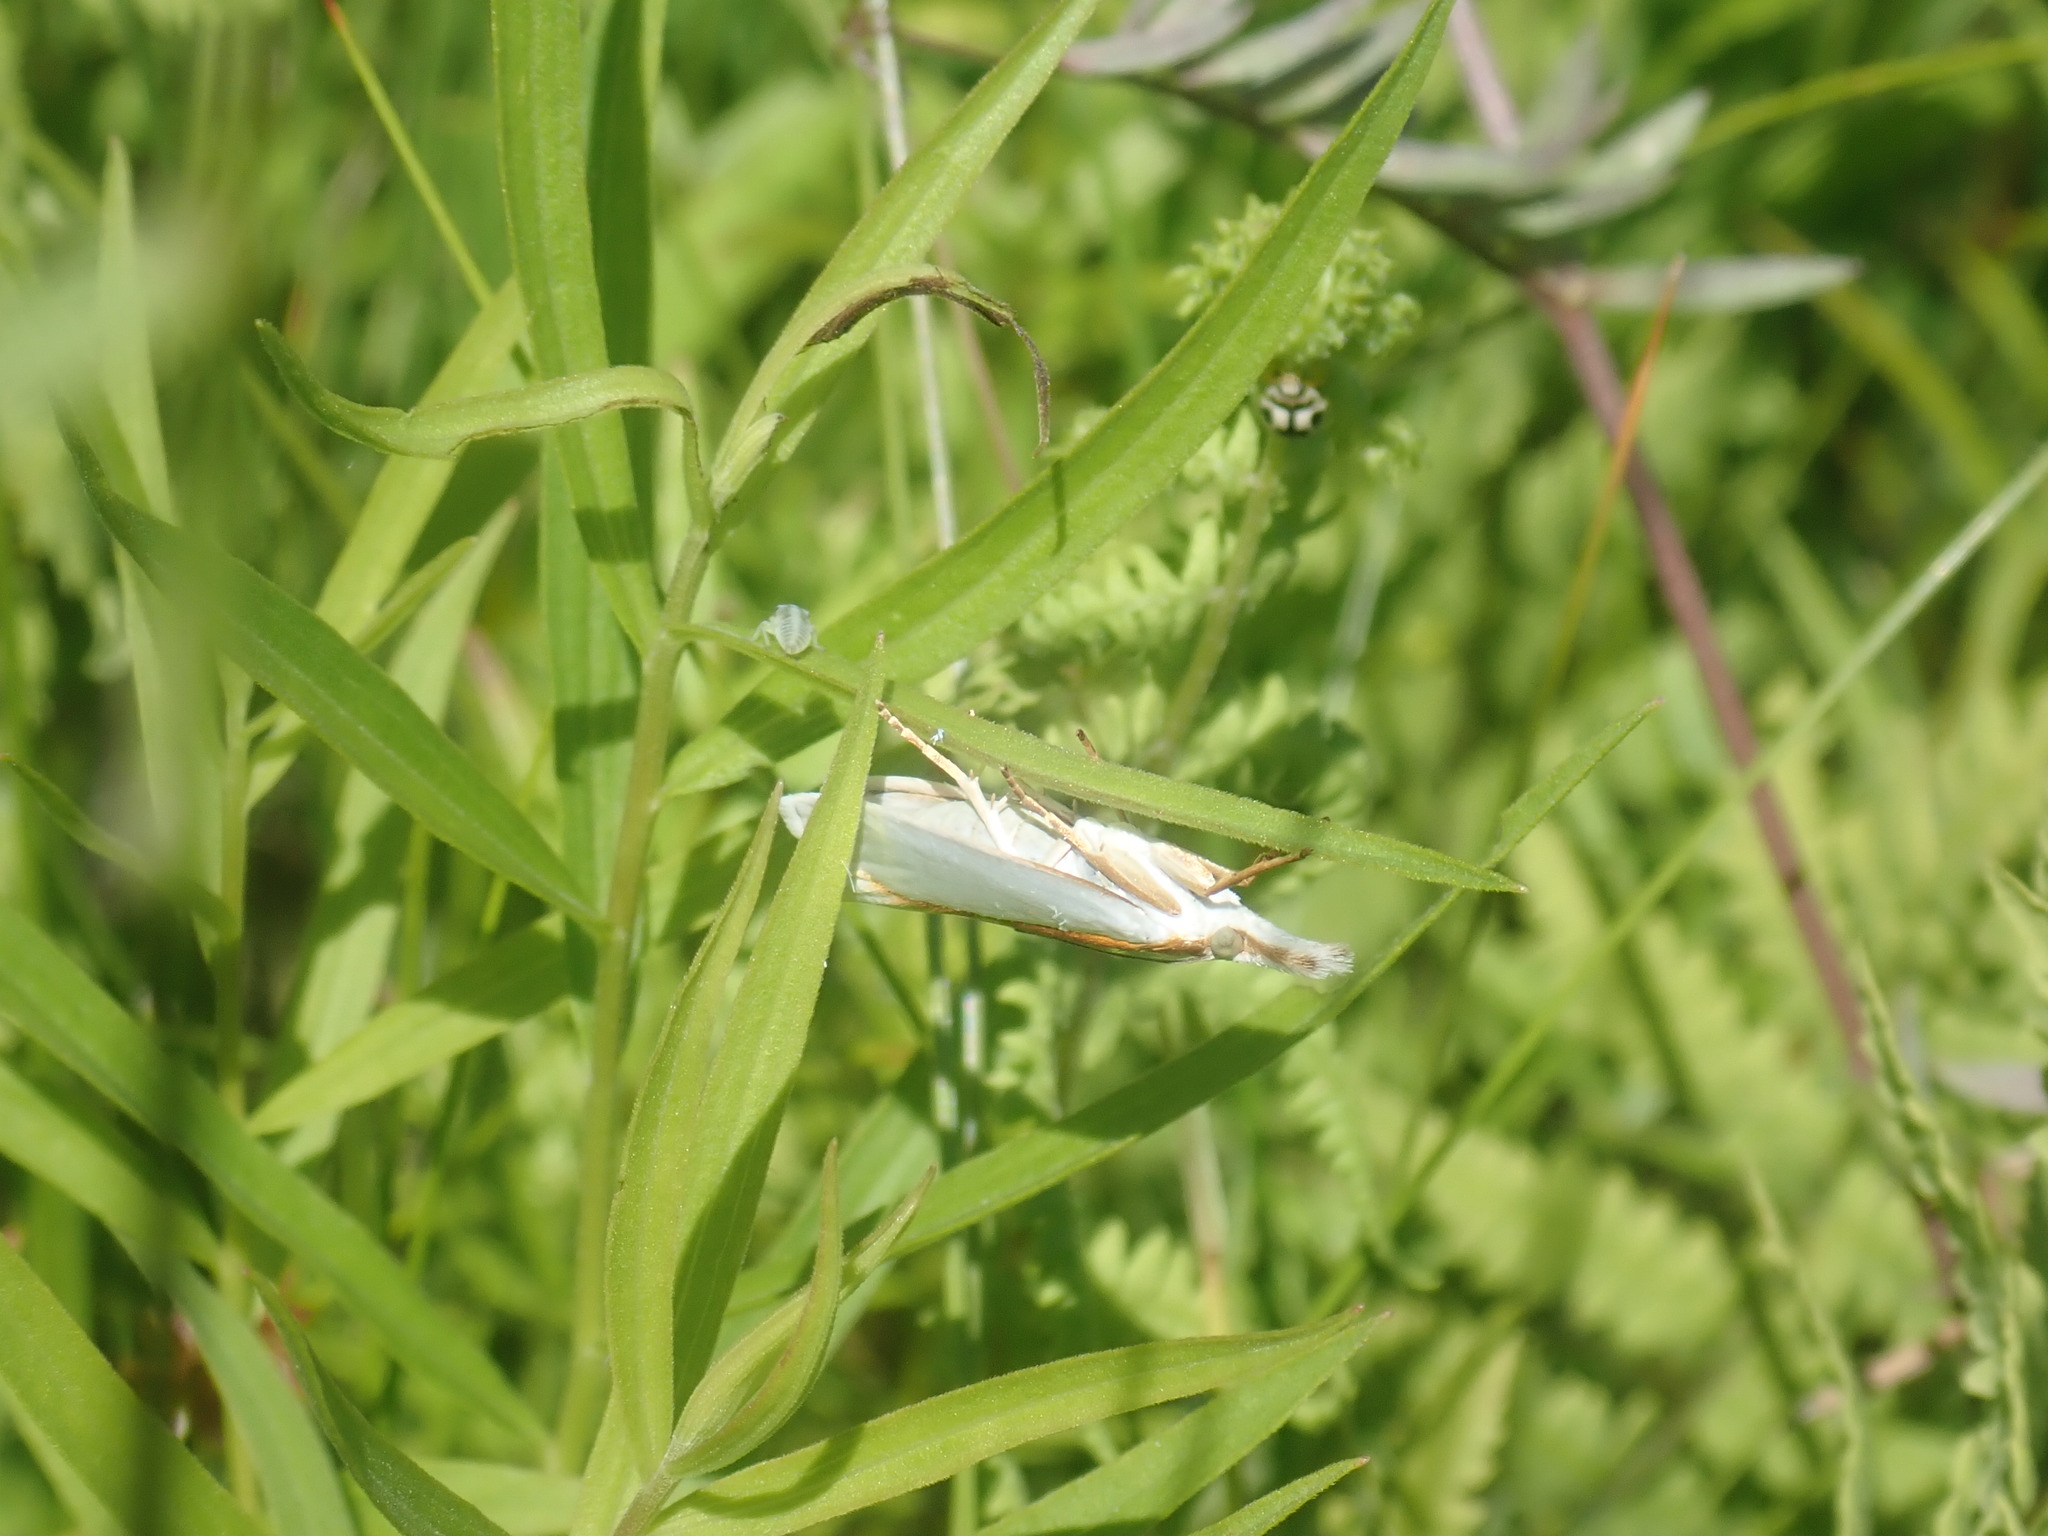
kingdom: Animalia
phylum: Arthropoda
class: Insecta
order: Lepidoptera
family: Crambidae
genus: Crambus
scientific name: Crambus girardellus
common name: Girard's grass-veneer
